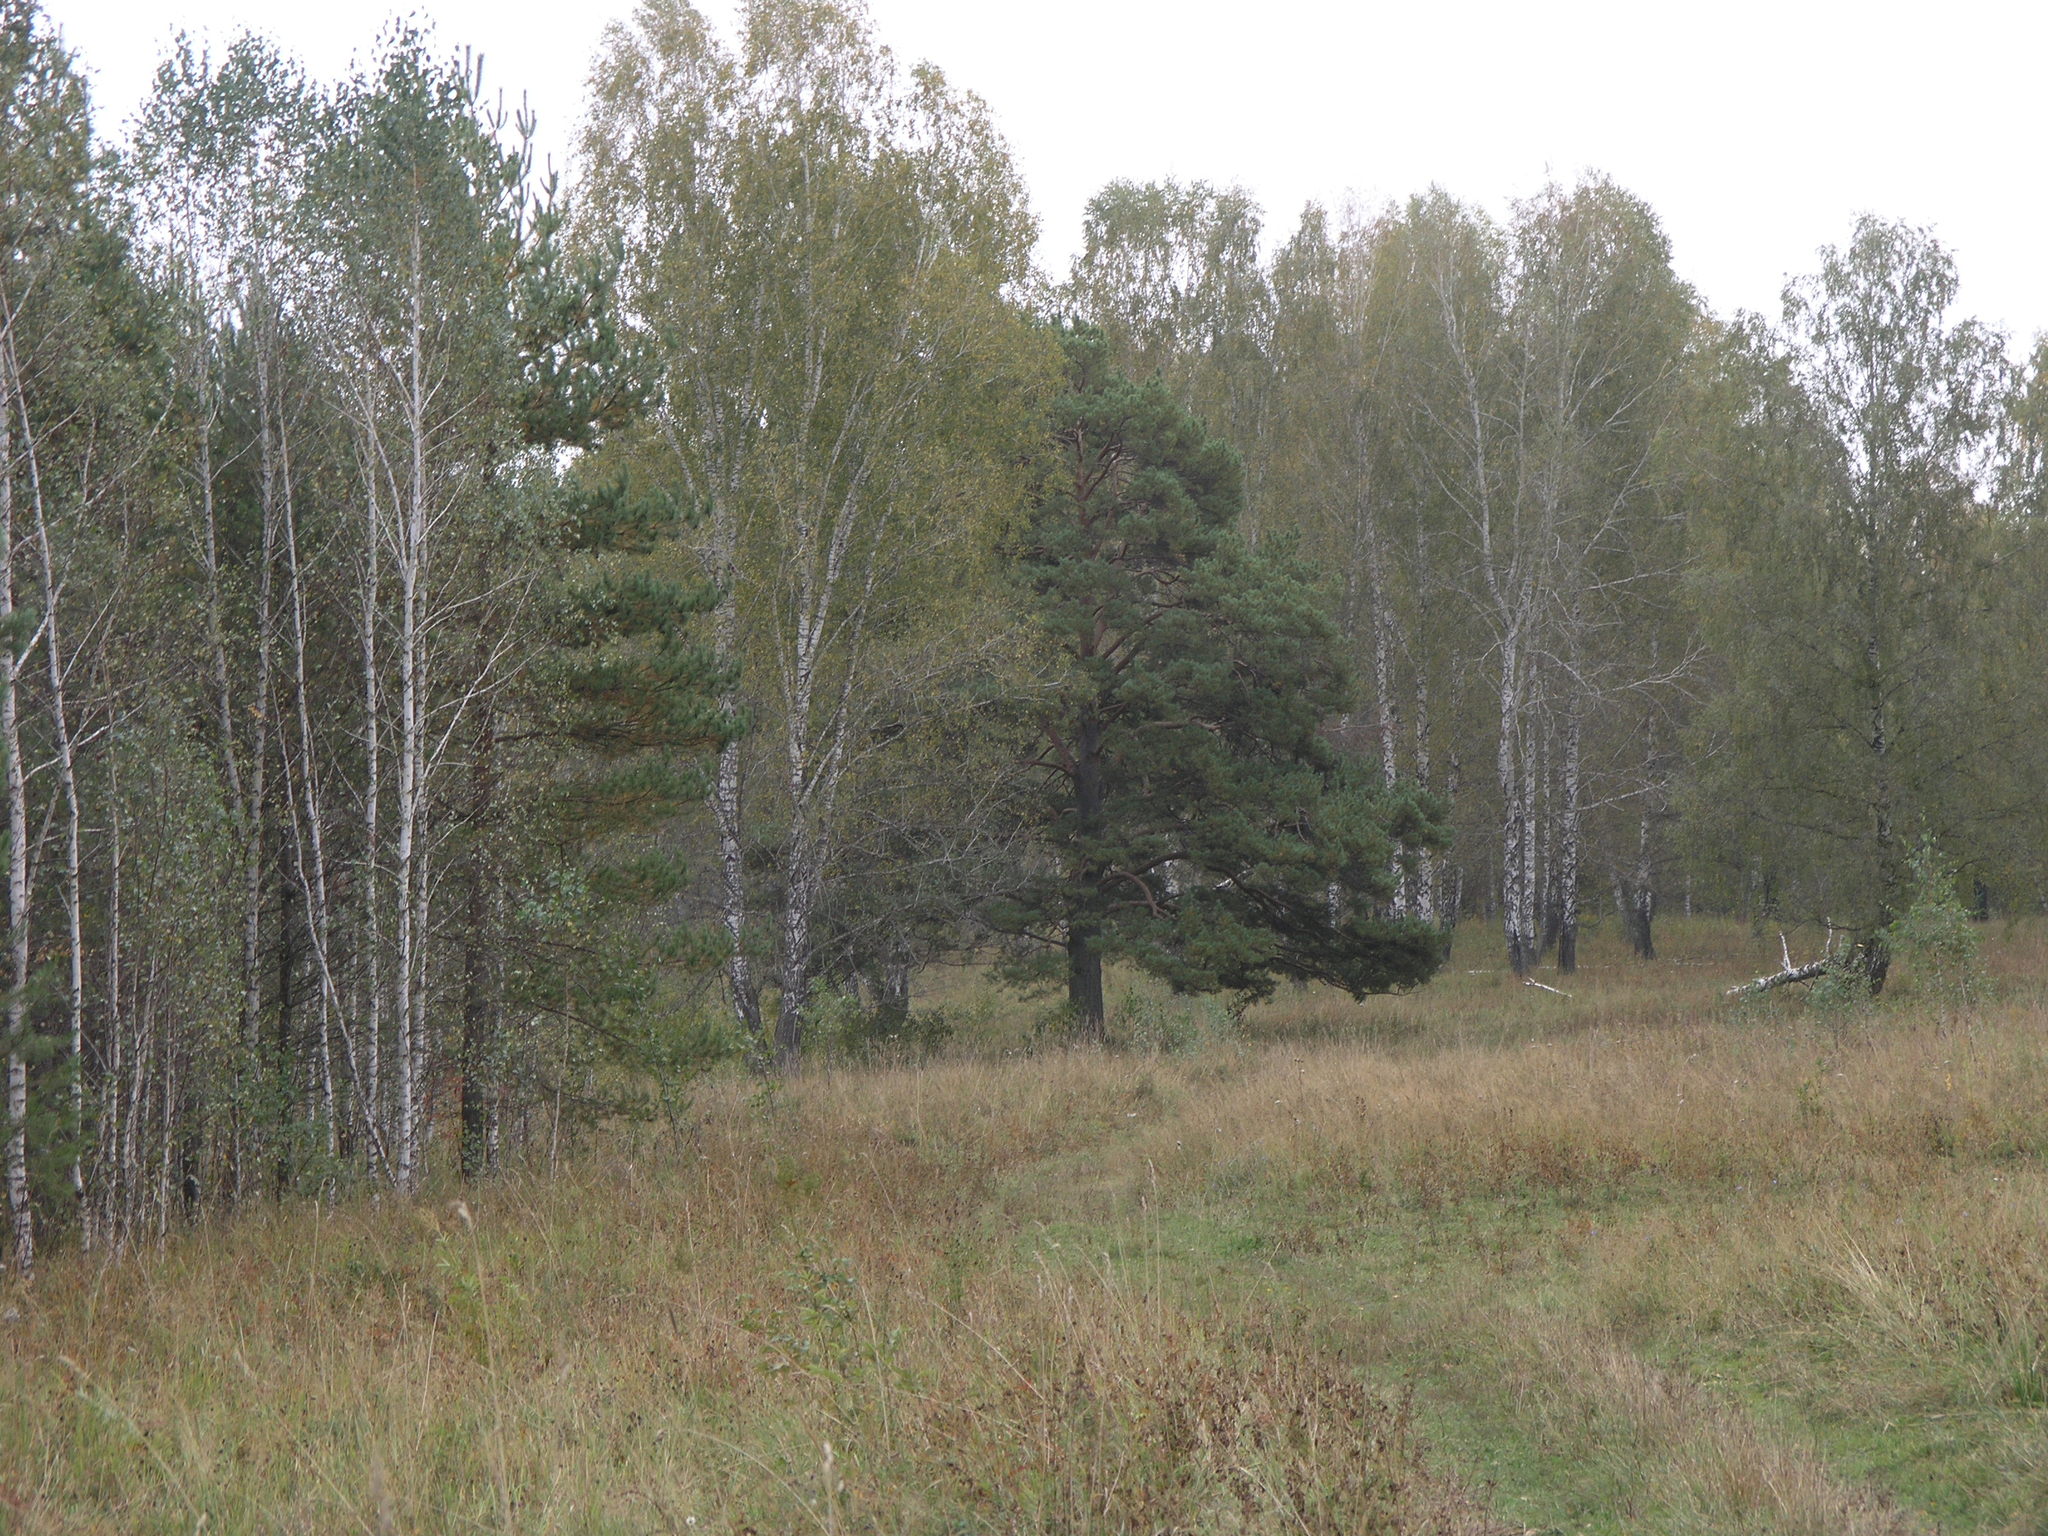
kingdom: Plantae
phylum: Tracheophyta
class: Pinopsida
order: Pinales
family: Pinaceae
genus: Pinus
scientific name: Pinus sylvestris
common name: Scots pine
